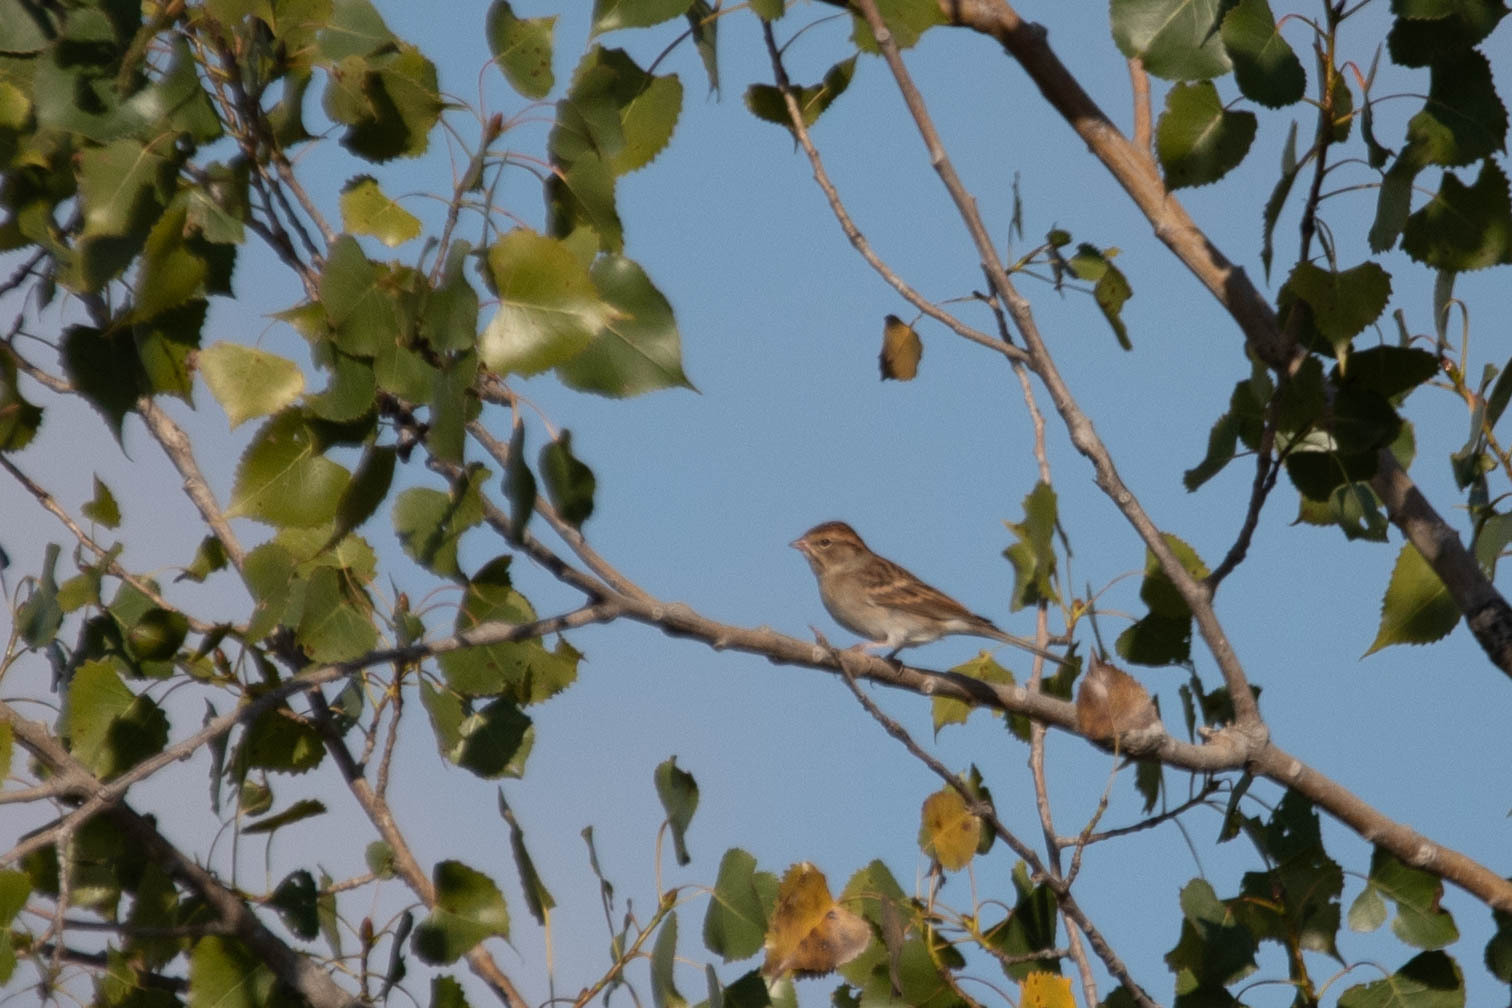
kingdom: Animalia
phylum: Chordata
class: Aves
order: Passeriformes
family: Passerellidae
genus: Spizella
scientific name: Spizella passerina
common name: Chipping sparrow
